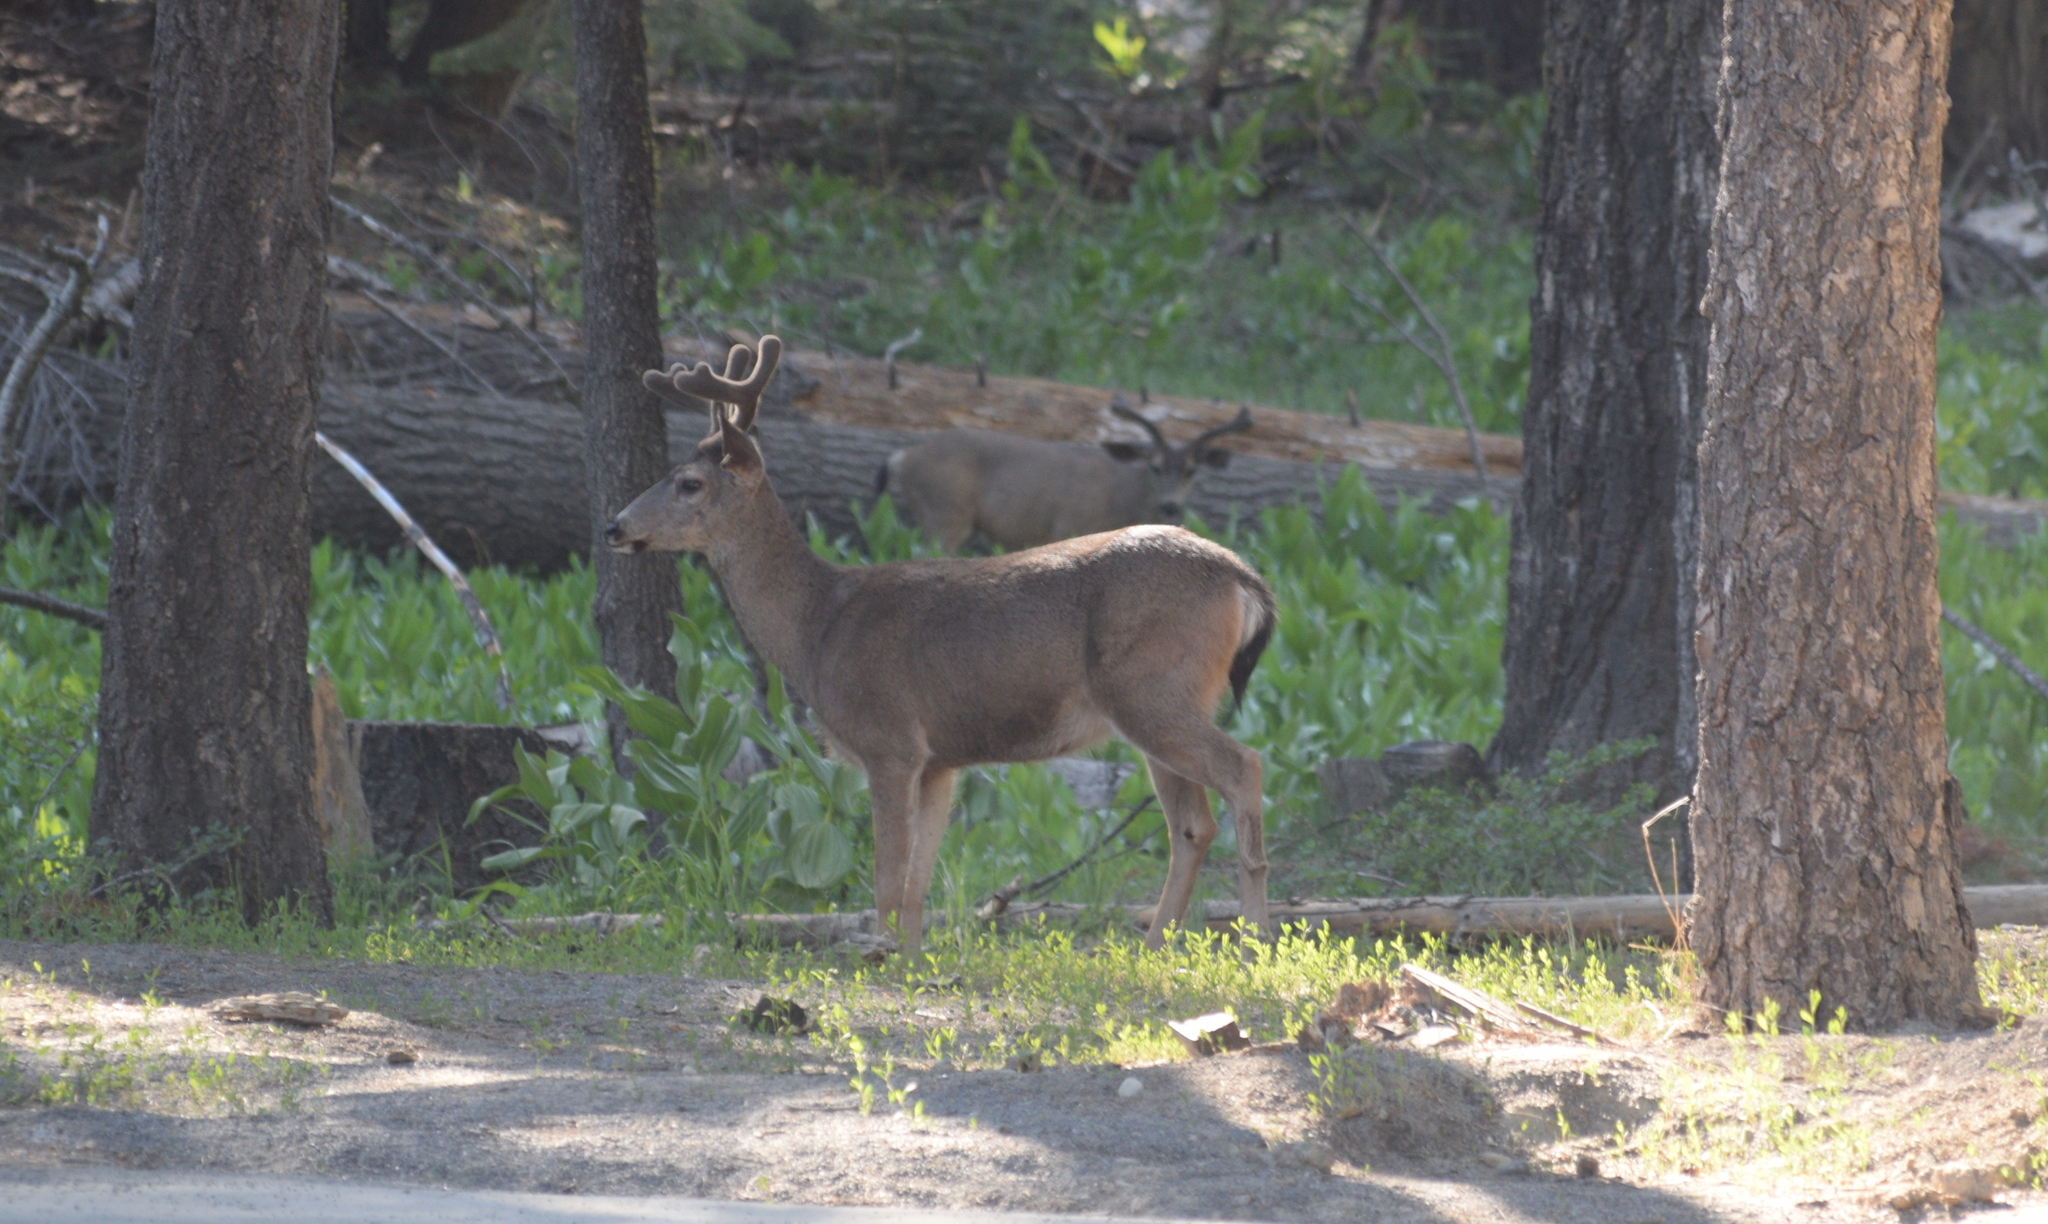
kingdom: Animalia
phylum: Chordata
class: Mammalia
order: Artiodactyla
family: Cervidae
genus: Odocoileus
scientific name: Odocoileus hemionus
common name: Mule deer
